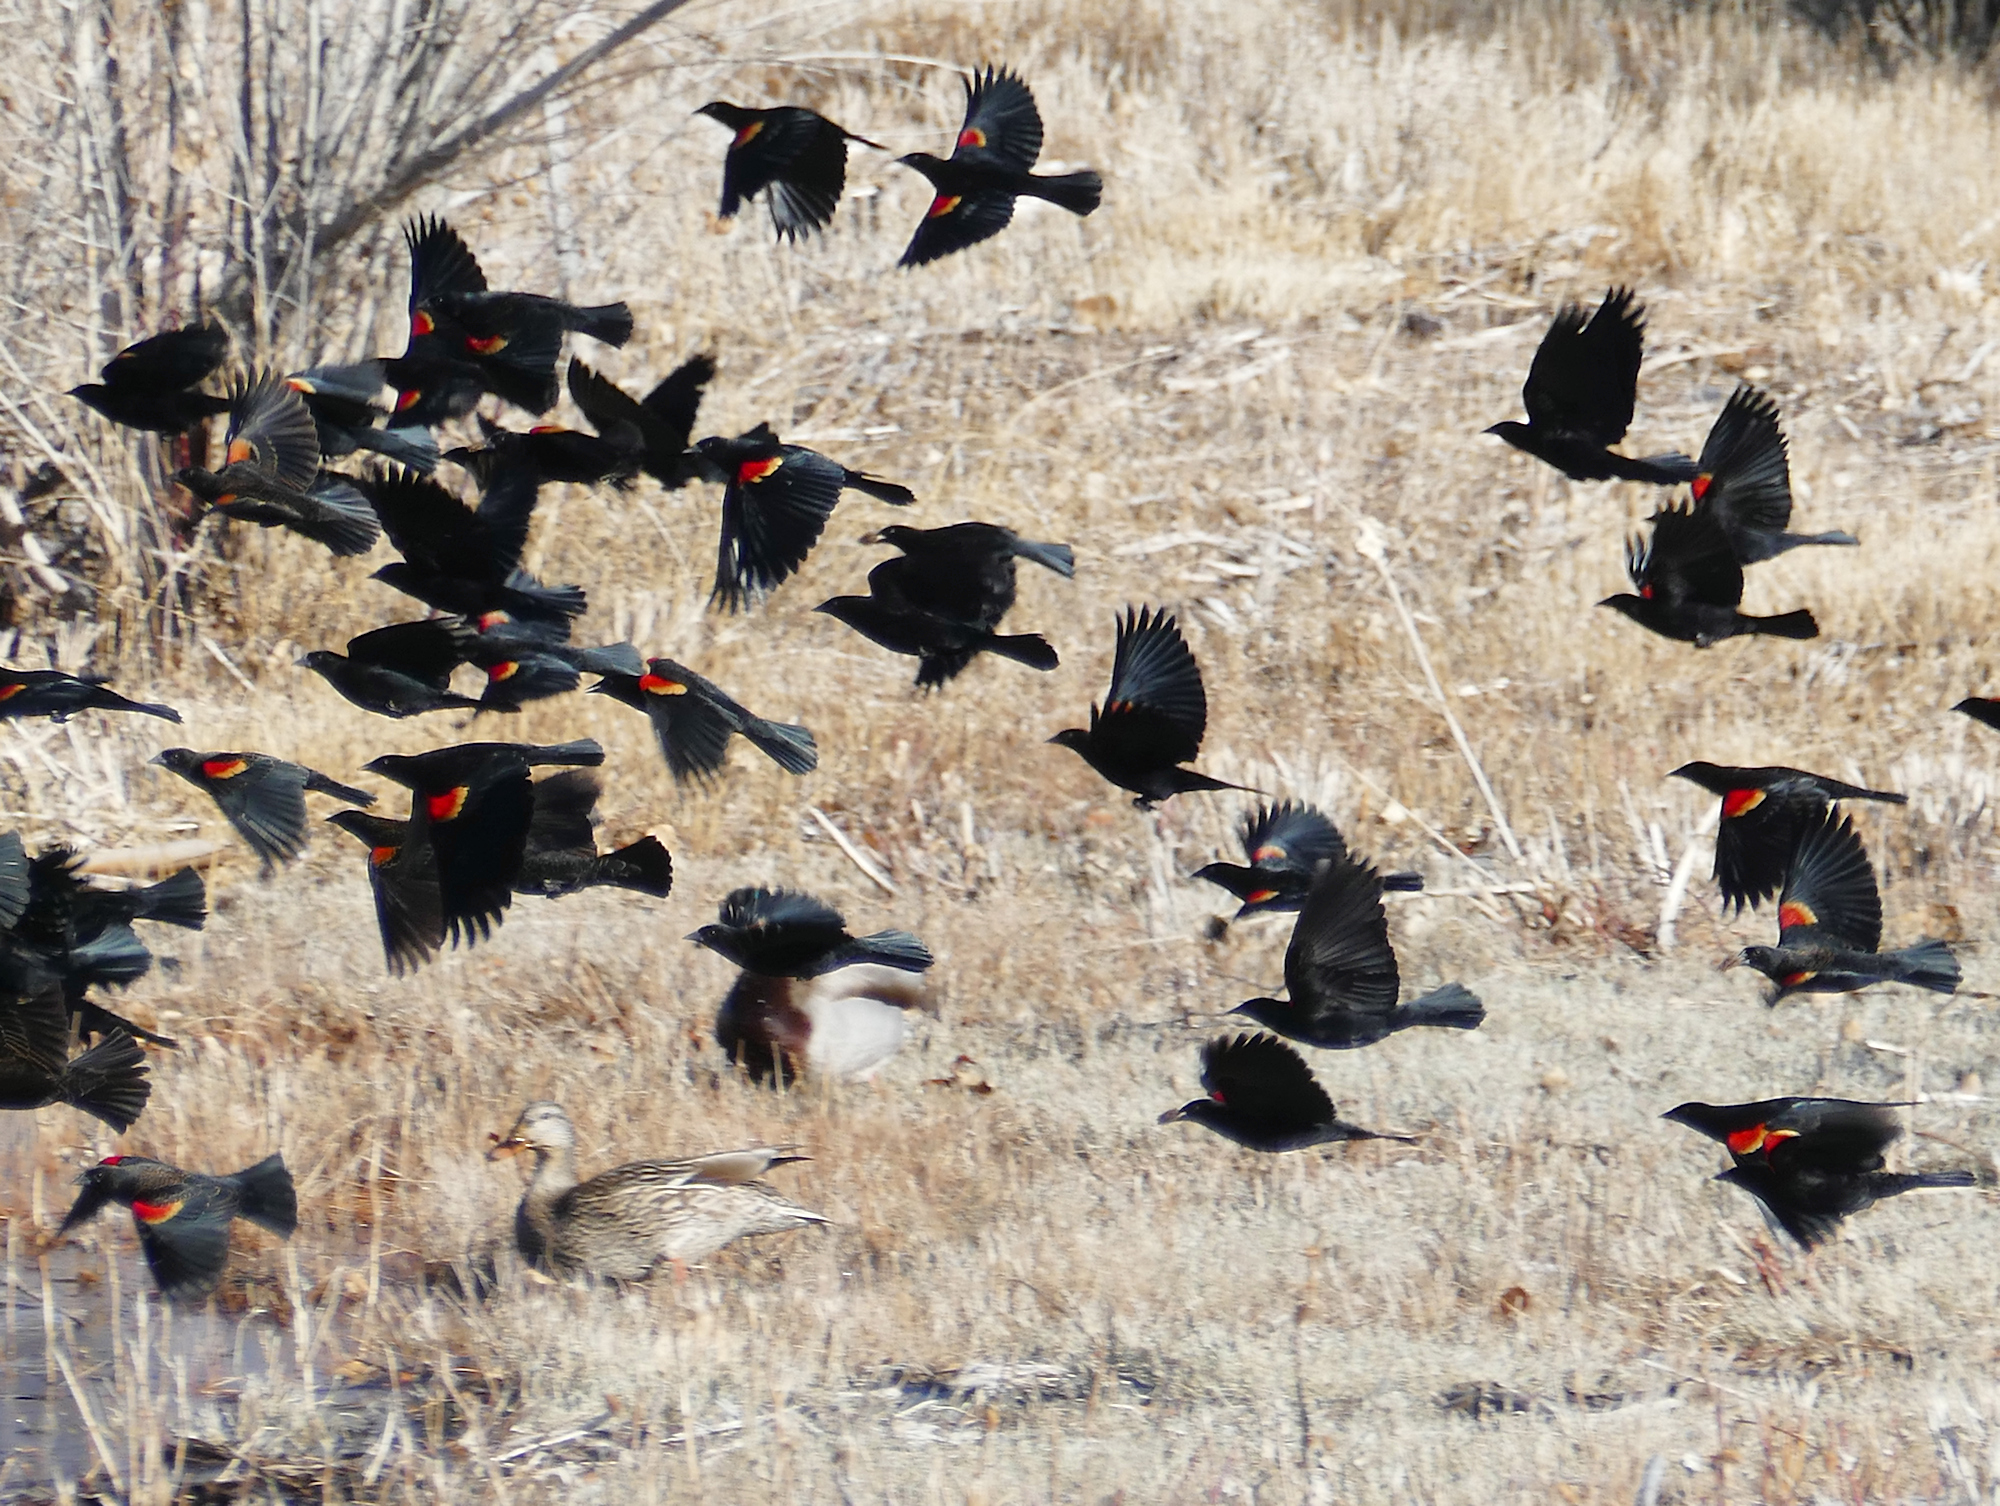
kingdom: Animalia
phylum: Chordata
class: Aves
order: Passeriformes
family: Icteridae
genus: Agelaius
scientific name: Agelaius phoeniceus
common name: Red-winged blackbird
